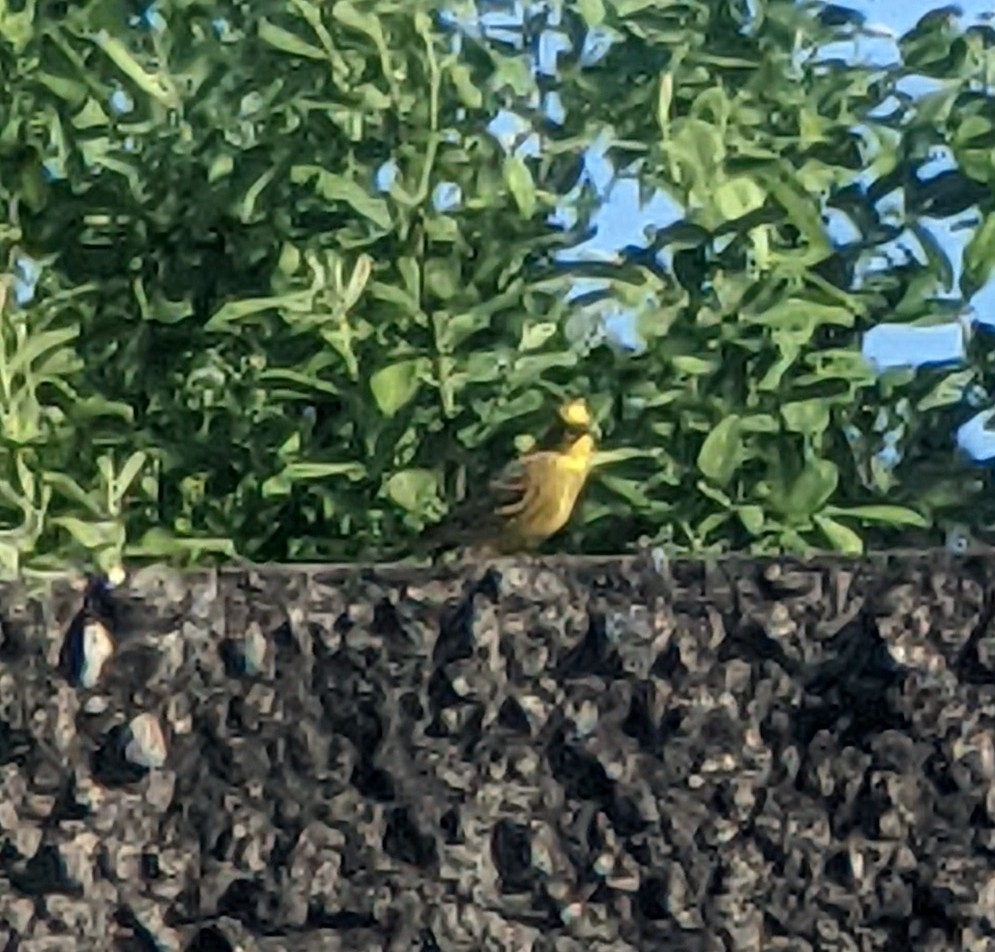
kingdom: Animalia
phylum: Chordata
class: Aves
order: Passeriformes
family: Emberizidae
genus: Emberiza
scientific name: Emberiza citrinella
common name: Yellowhammer
